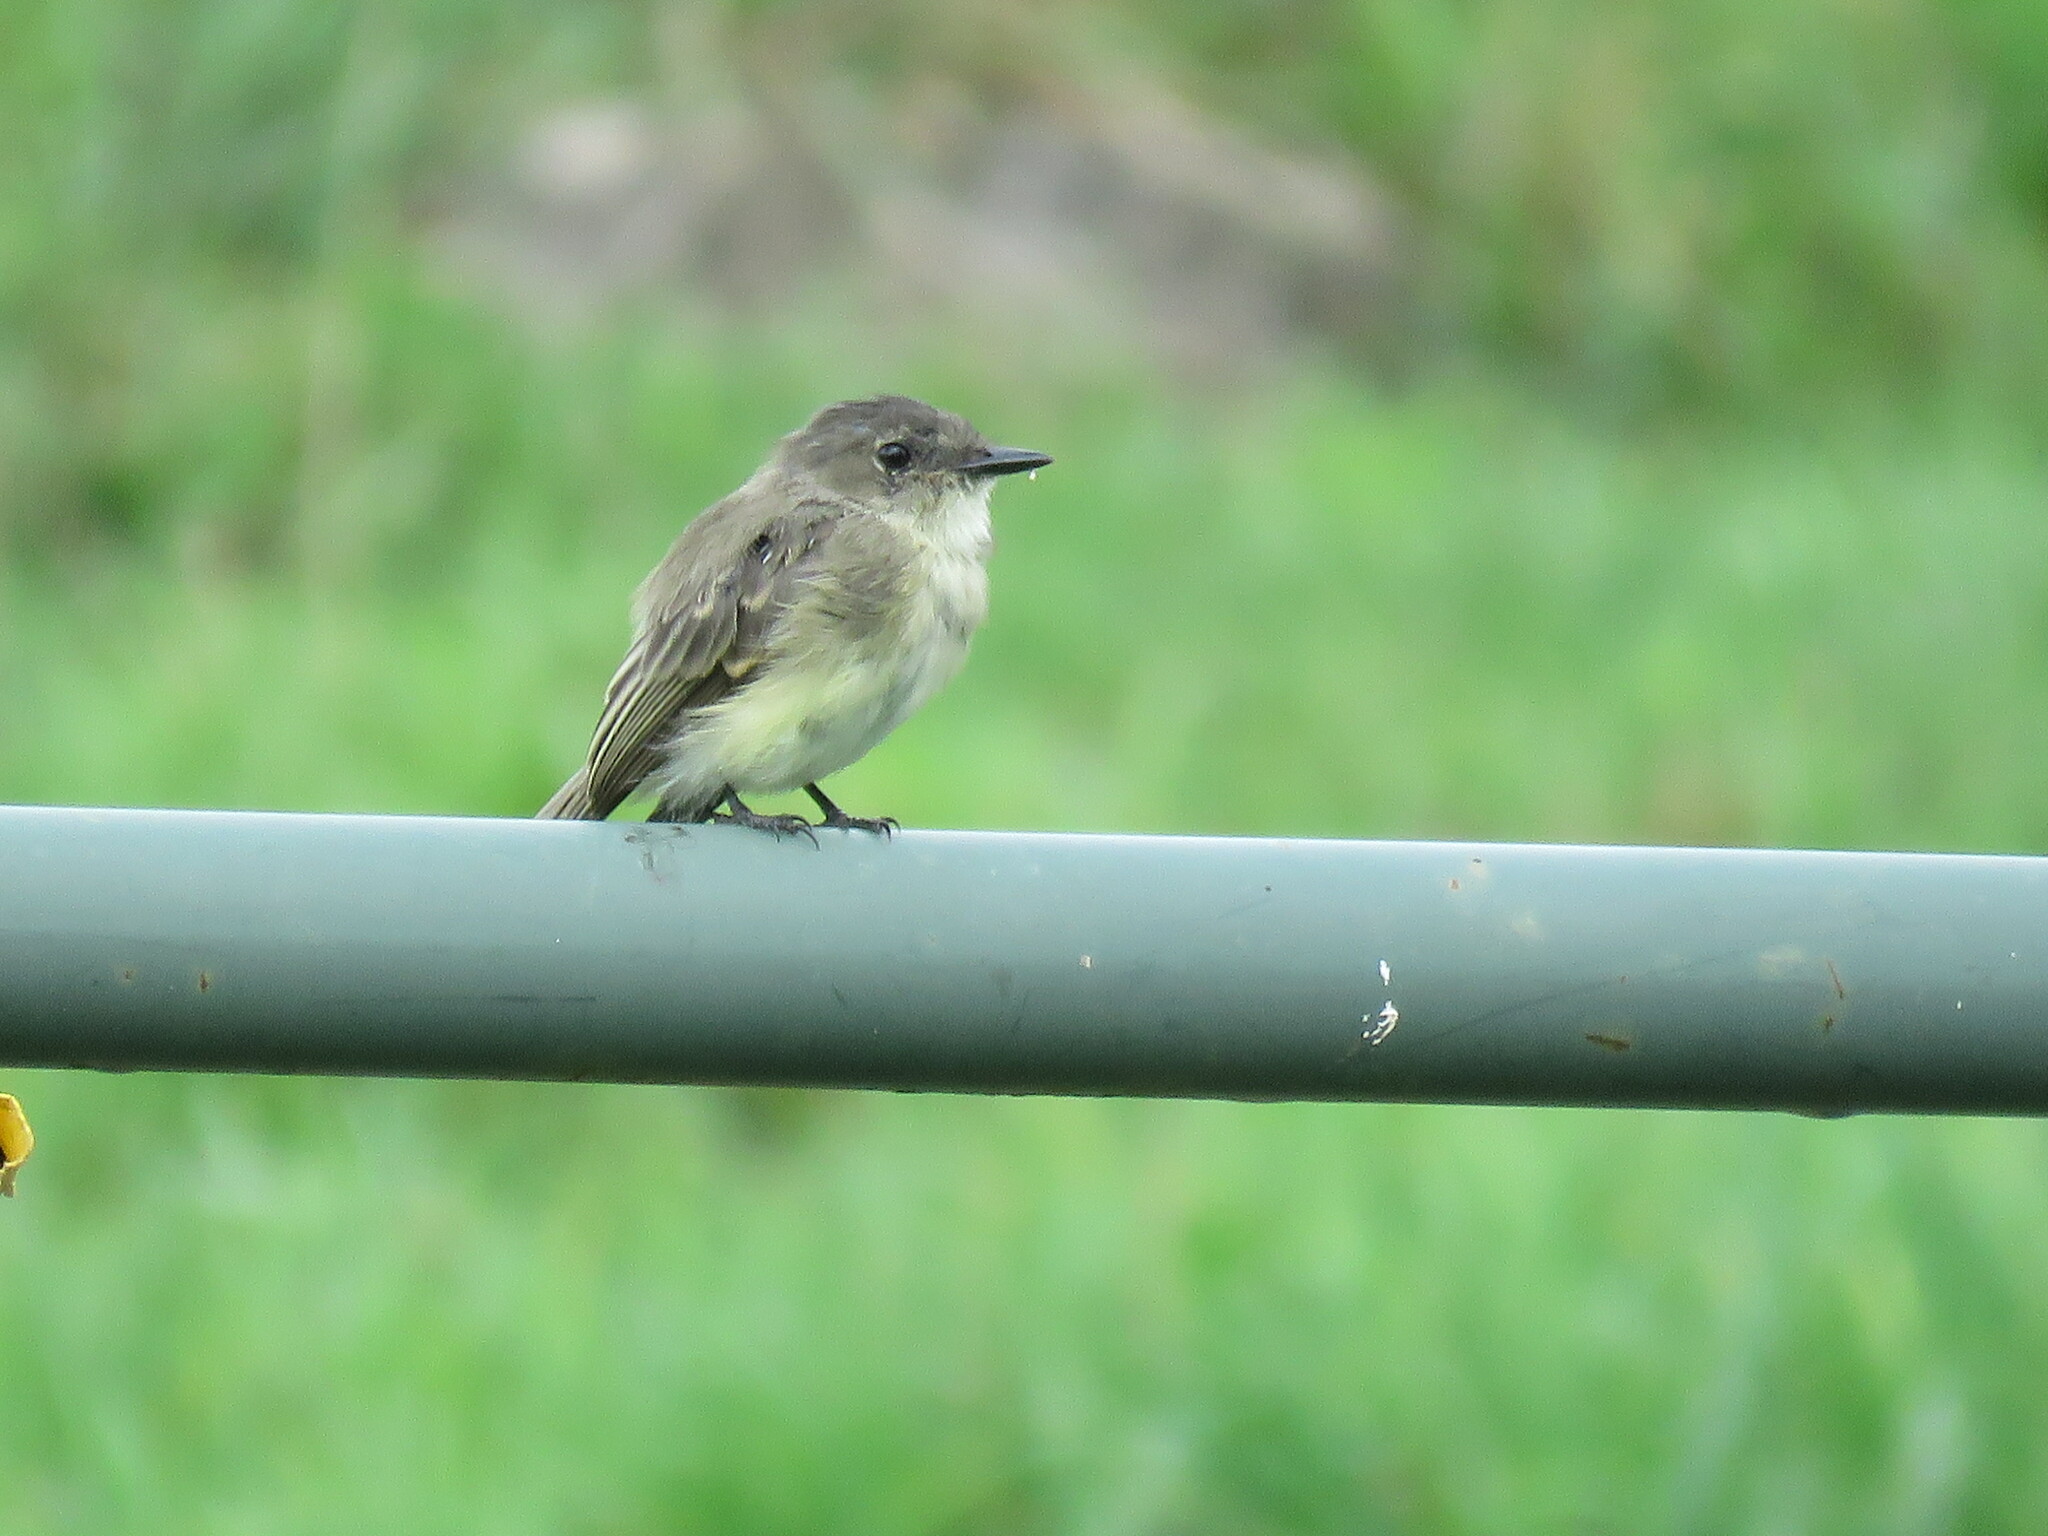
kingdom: Animalia
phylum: Chordata
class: Aves
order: Passeriformes
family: Tyrannidae
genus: Sayornis
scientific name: Sayornis phoebe
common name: Eastern phoebe
